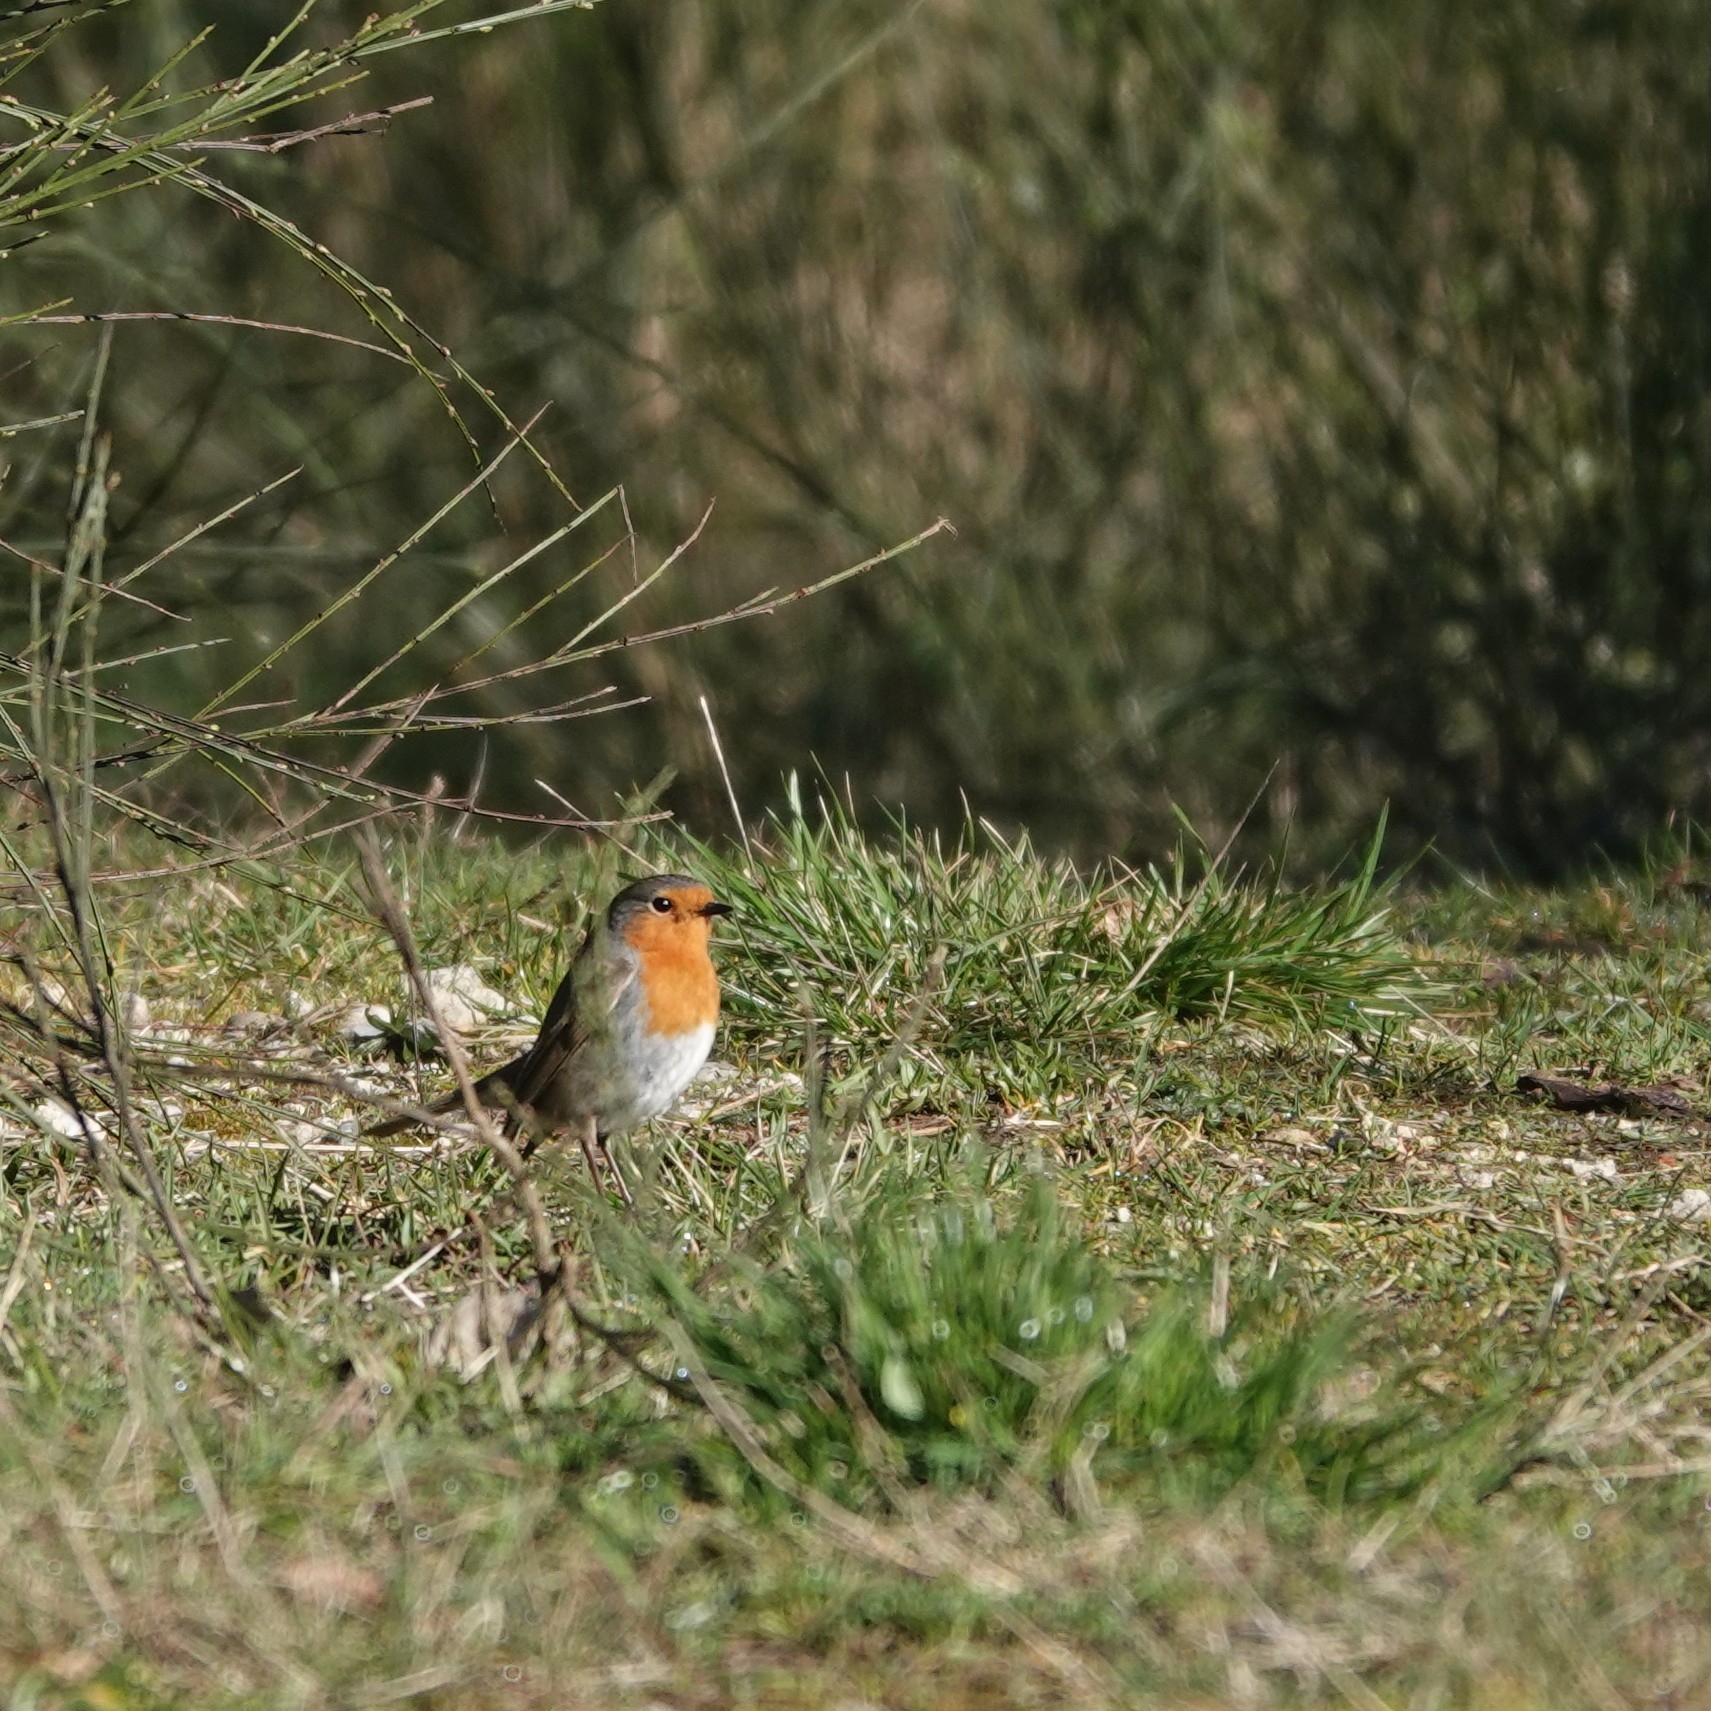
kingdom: Animalia
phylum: Chordata
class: Aves
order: Passeriformes
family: Muscicapidae
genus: Erithacus
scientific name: Erithacus rubecula
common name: European robin
